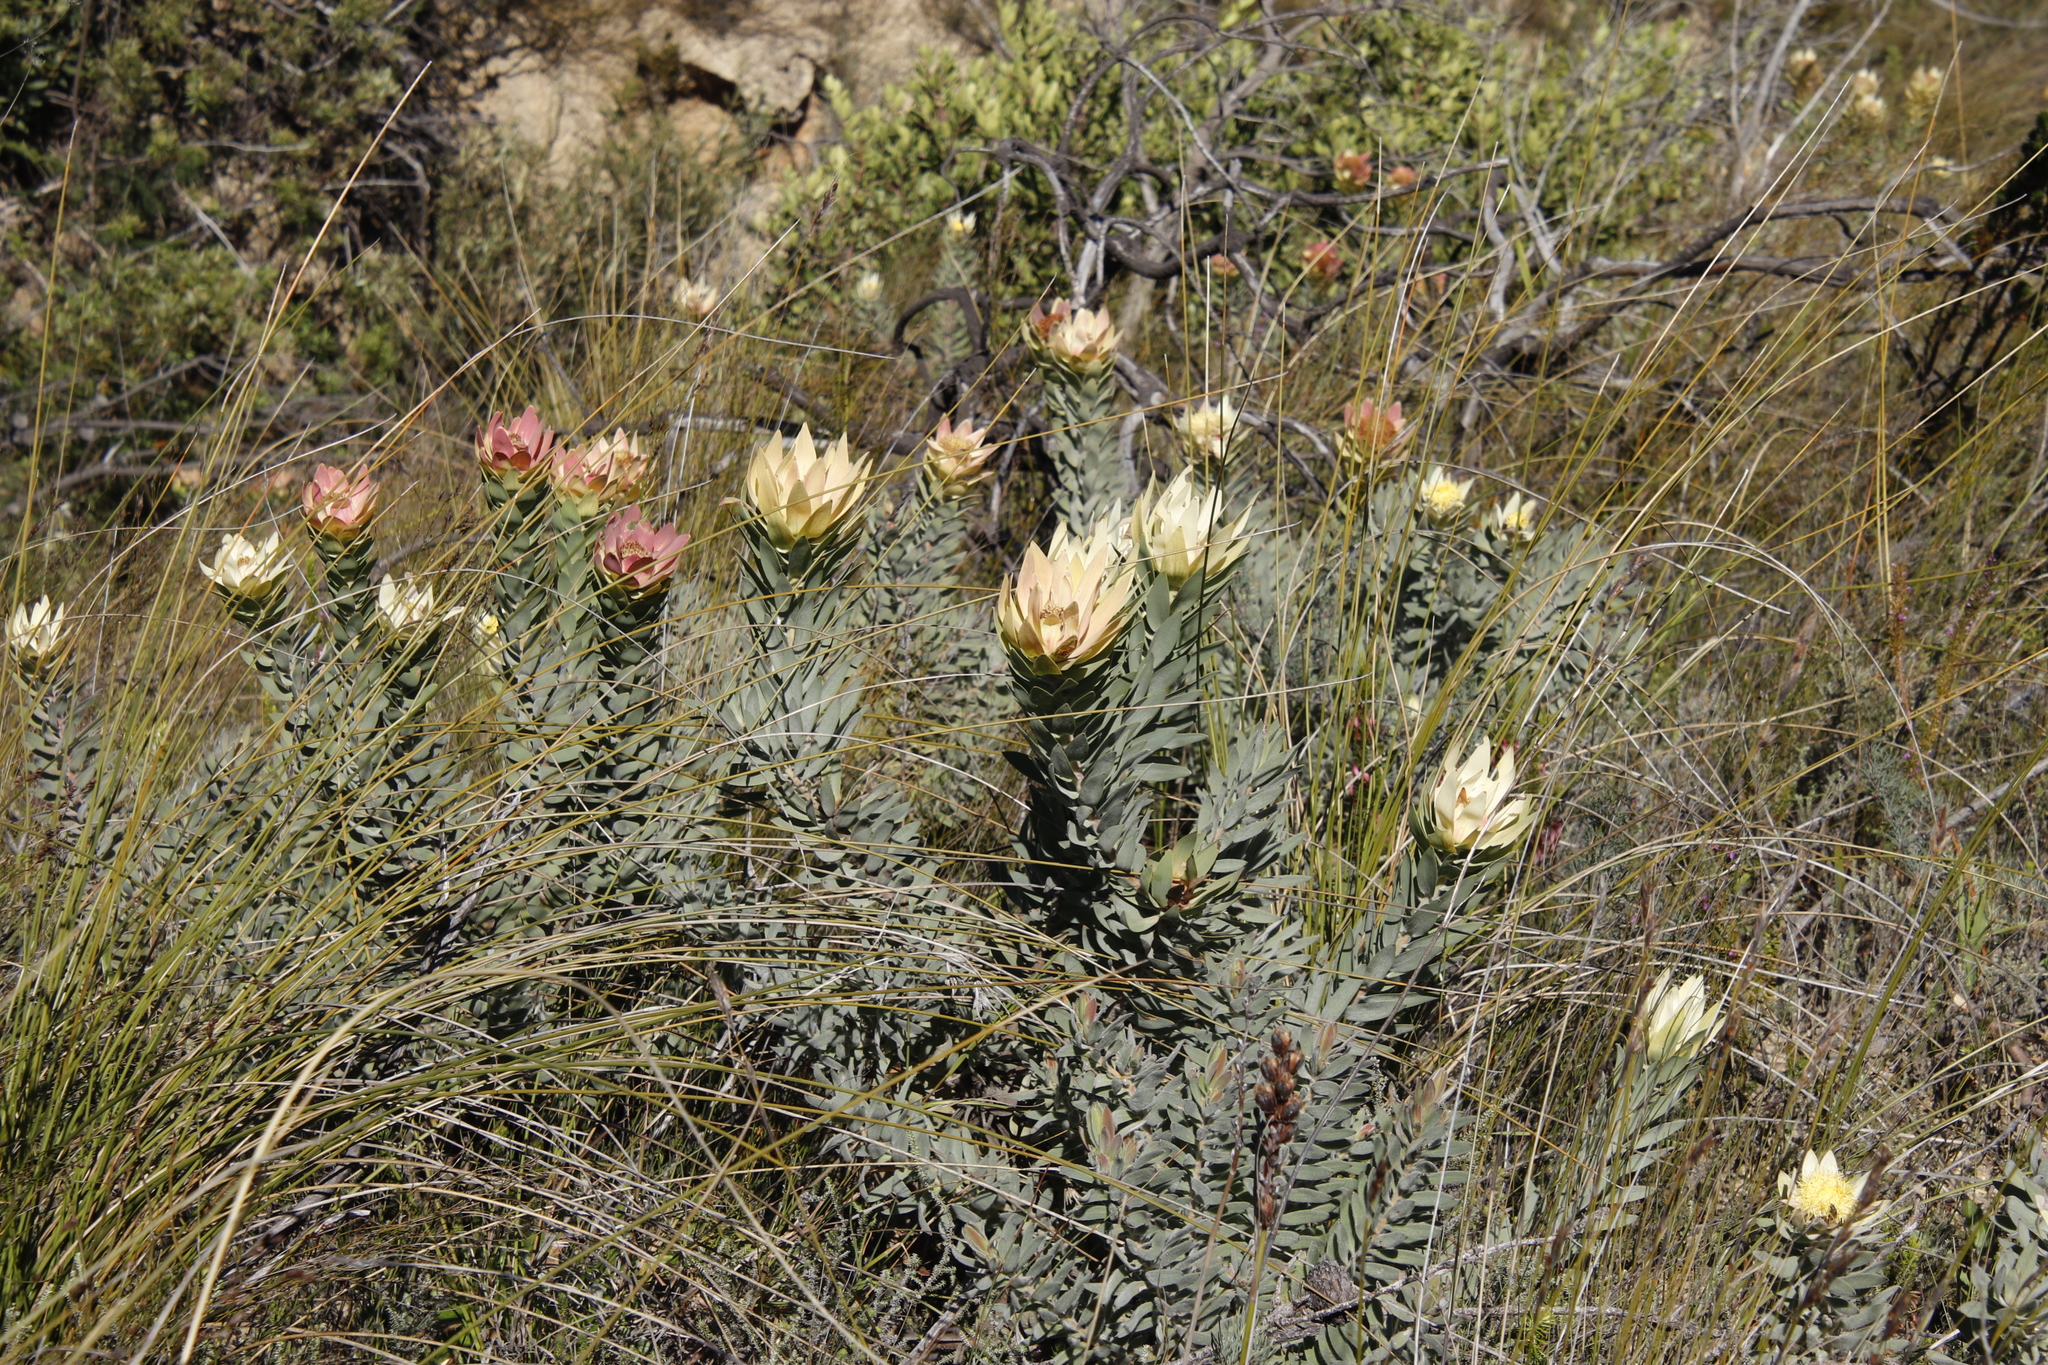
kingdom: Plantae
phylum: Tracheophyta
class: Magnoliopsida
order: Proteales
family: Proteaceae
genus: Leucadendron
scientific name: Leucadendron daphnoides
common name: Du toit's kloof conebush
